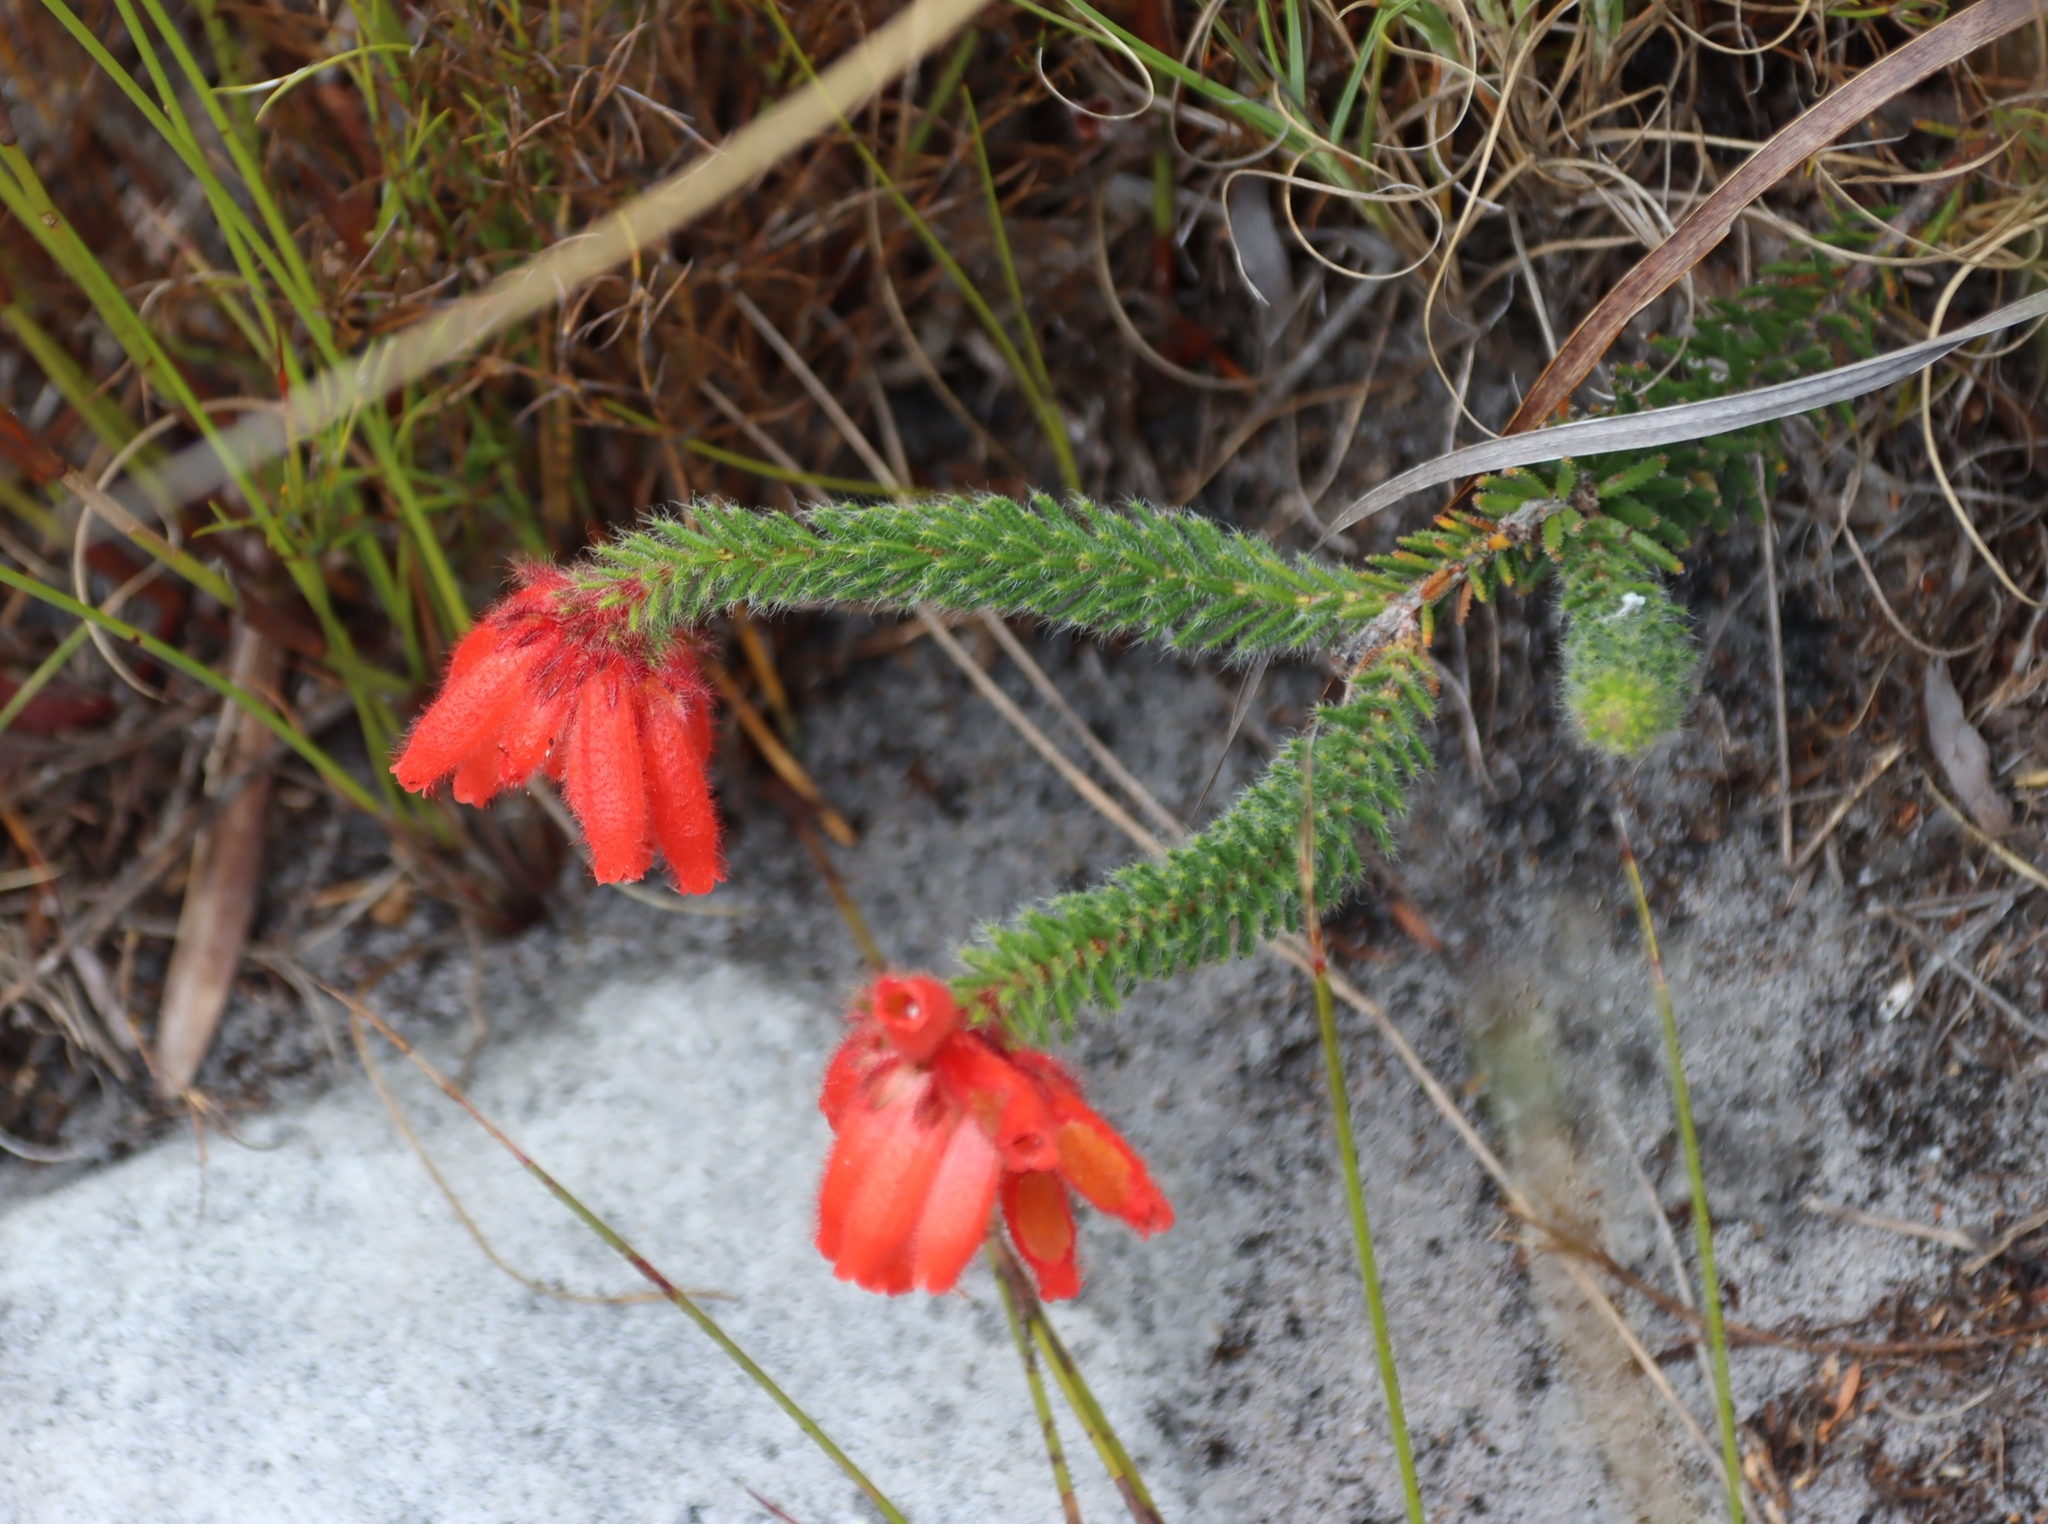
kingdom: Plantae
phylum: Tracheophyta
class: Magnoliopsida
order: Ericales
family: Ericaceae
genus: Erica
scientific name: Erica cerinthoides
